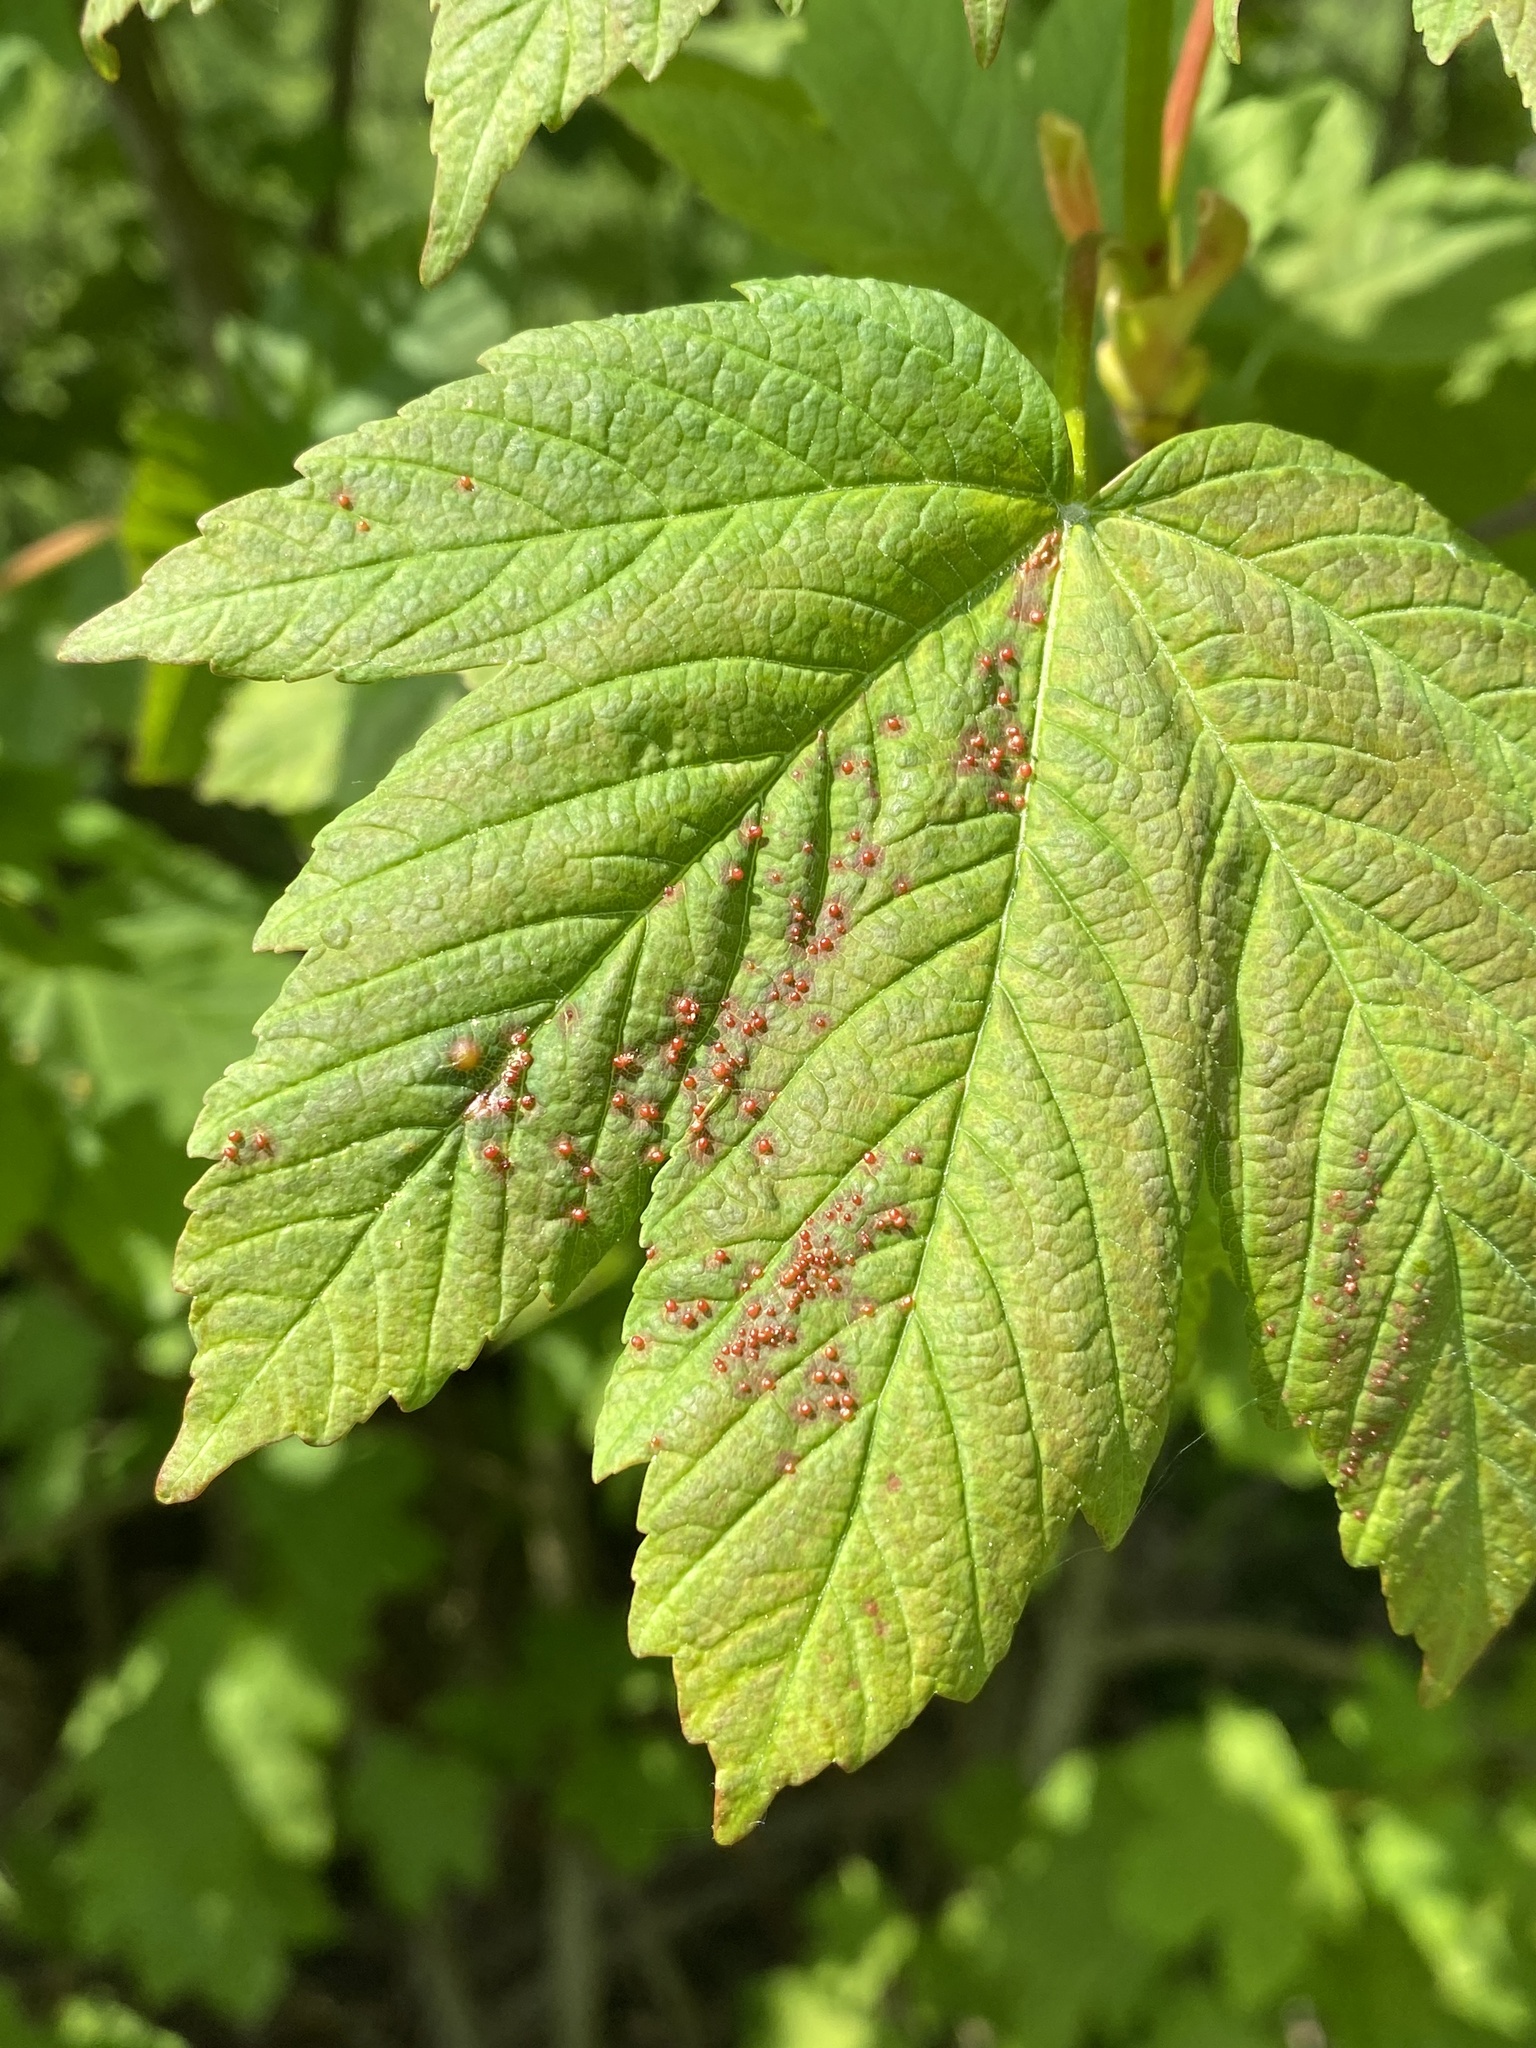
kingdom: Animalia
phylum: Arthropoda
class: Arachnida
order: Trombidiformes
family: Eriophyidae
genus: Aceria
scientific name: Aceria cephaloneus
